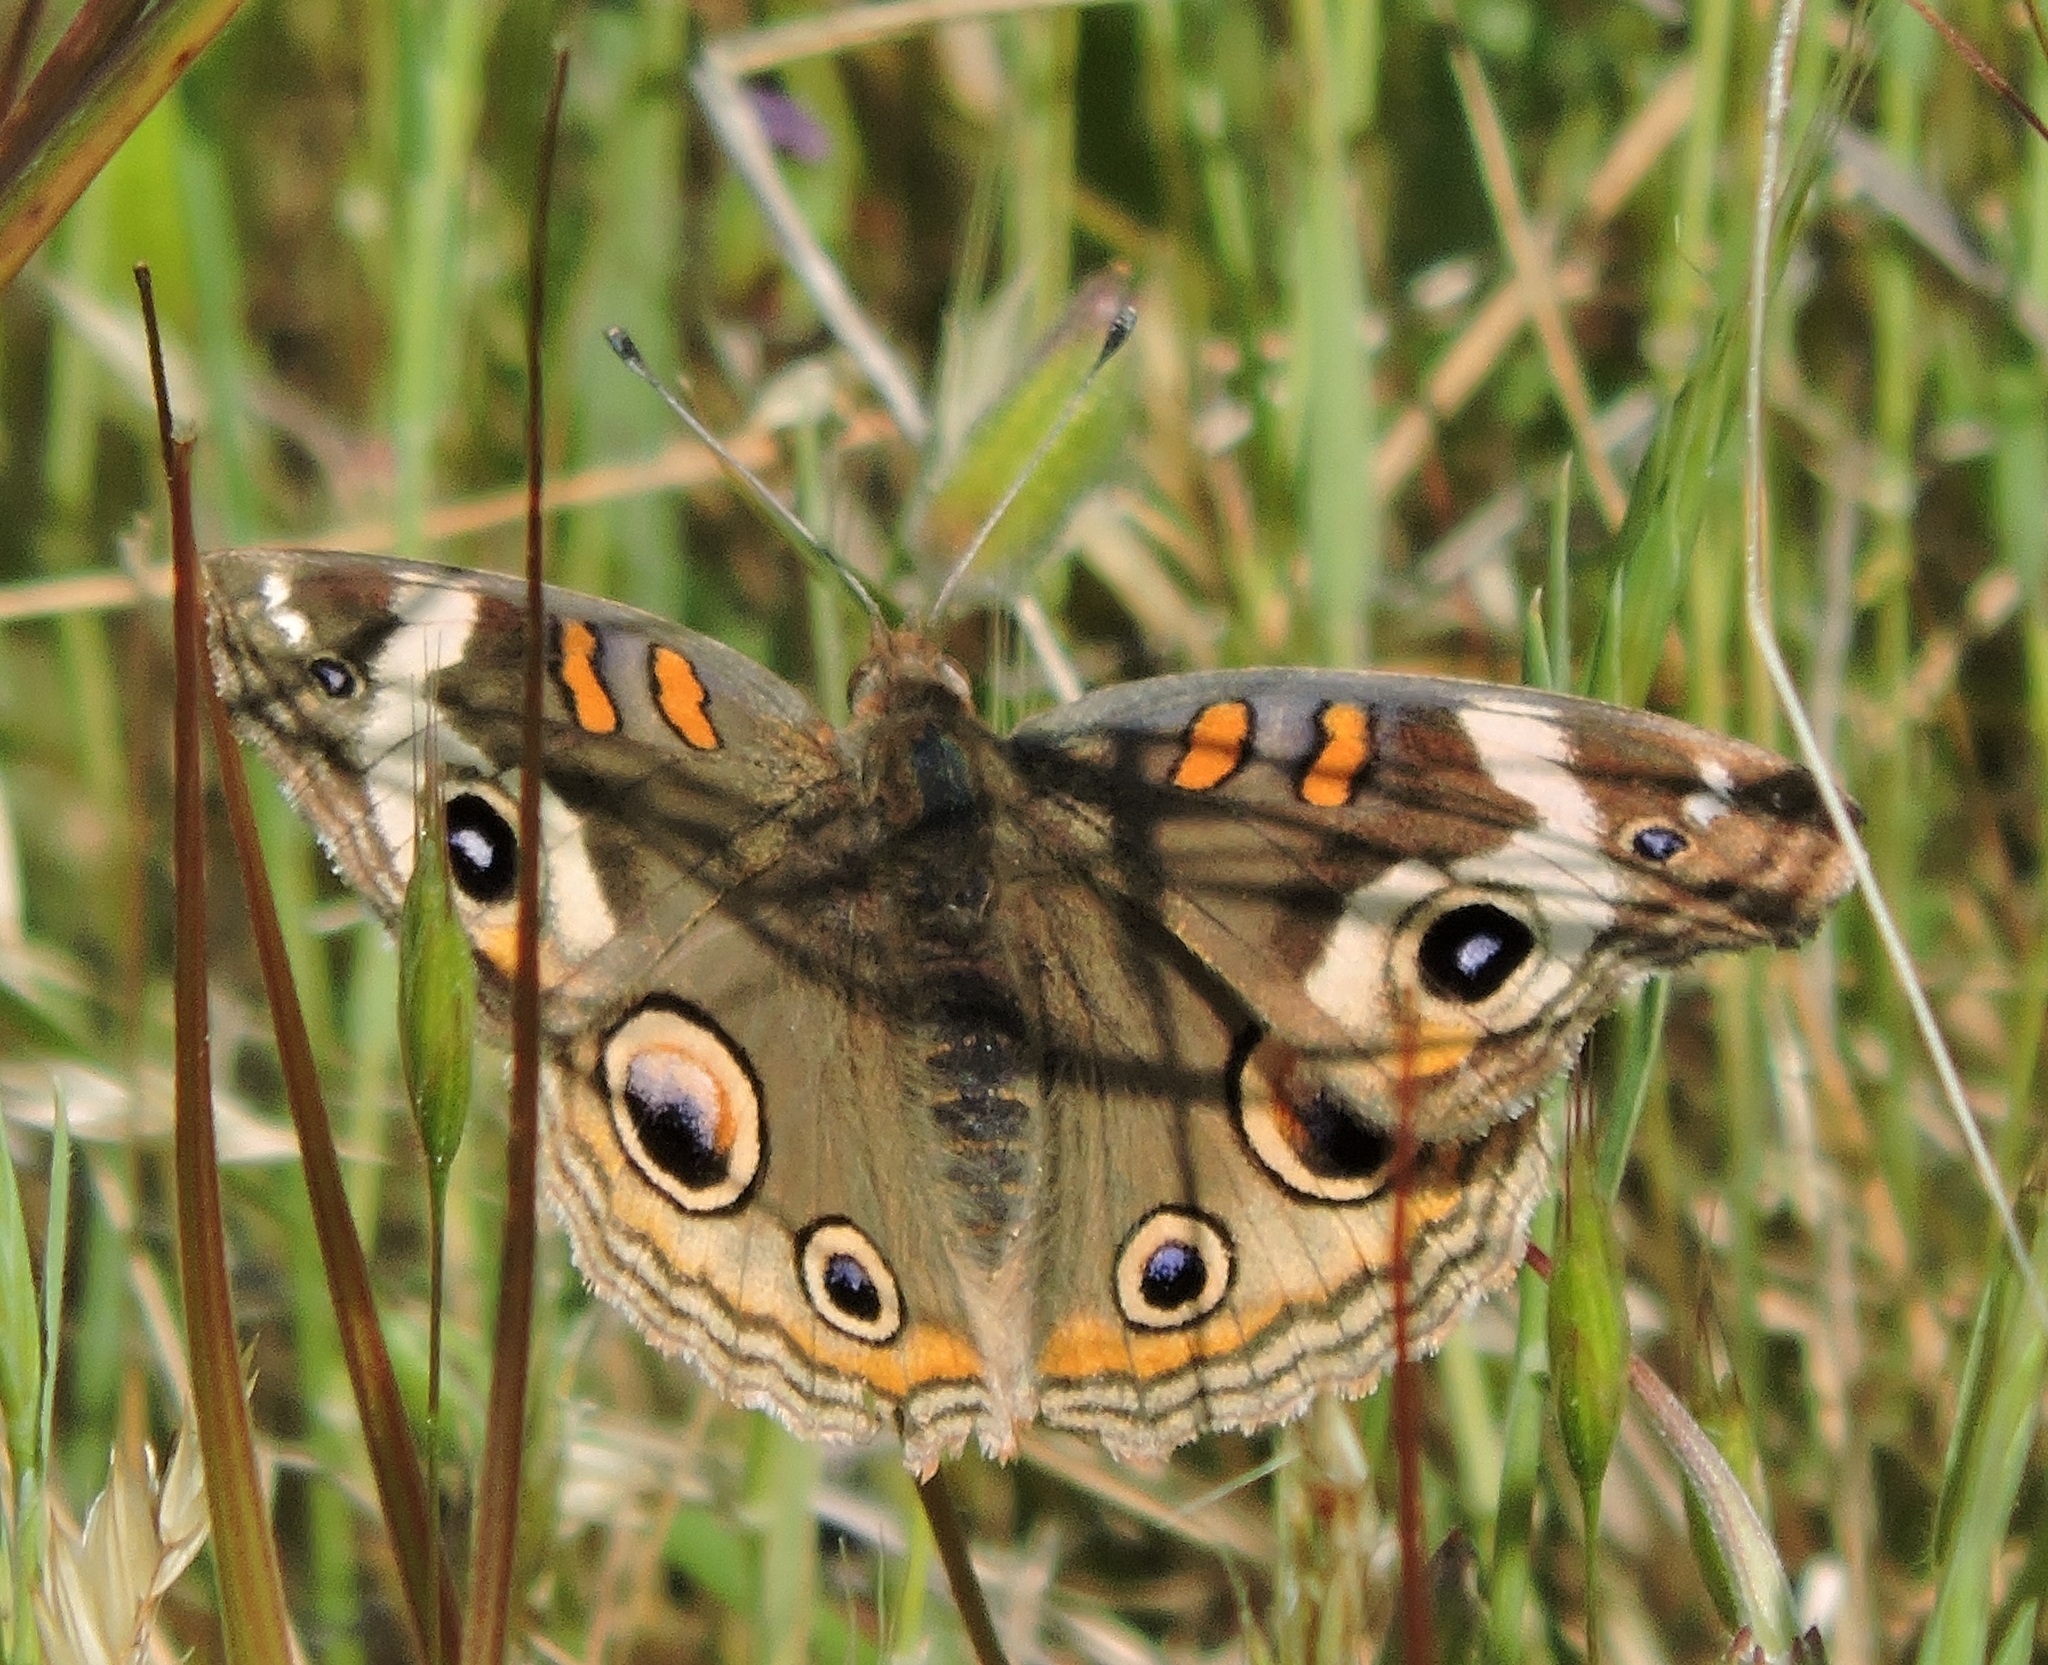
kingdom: Animalia
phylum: Arthropoda
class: Insecta
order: Lepidoptera
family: Nymphalidae
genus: Junonia
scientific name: Junonia grisea
